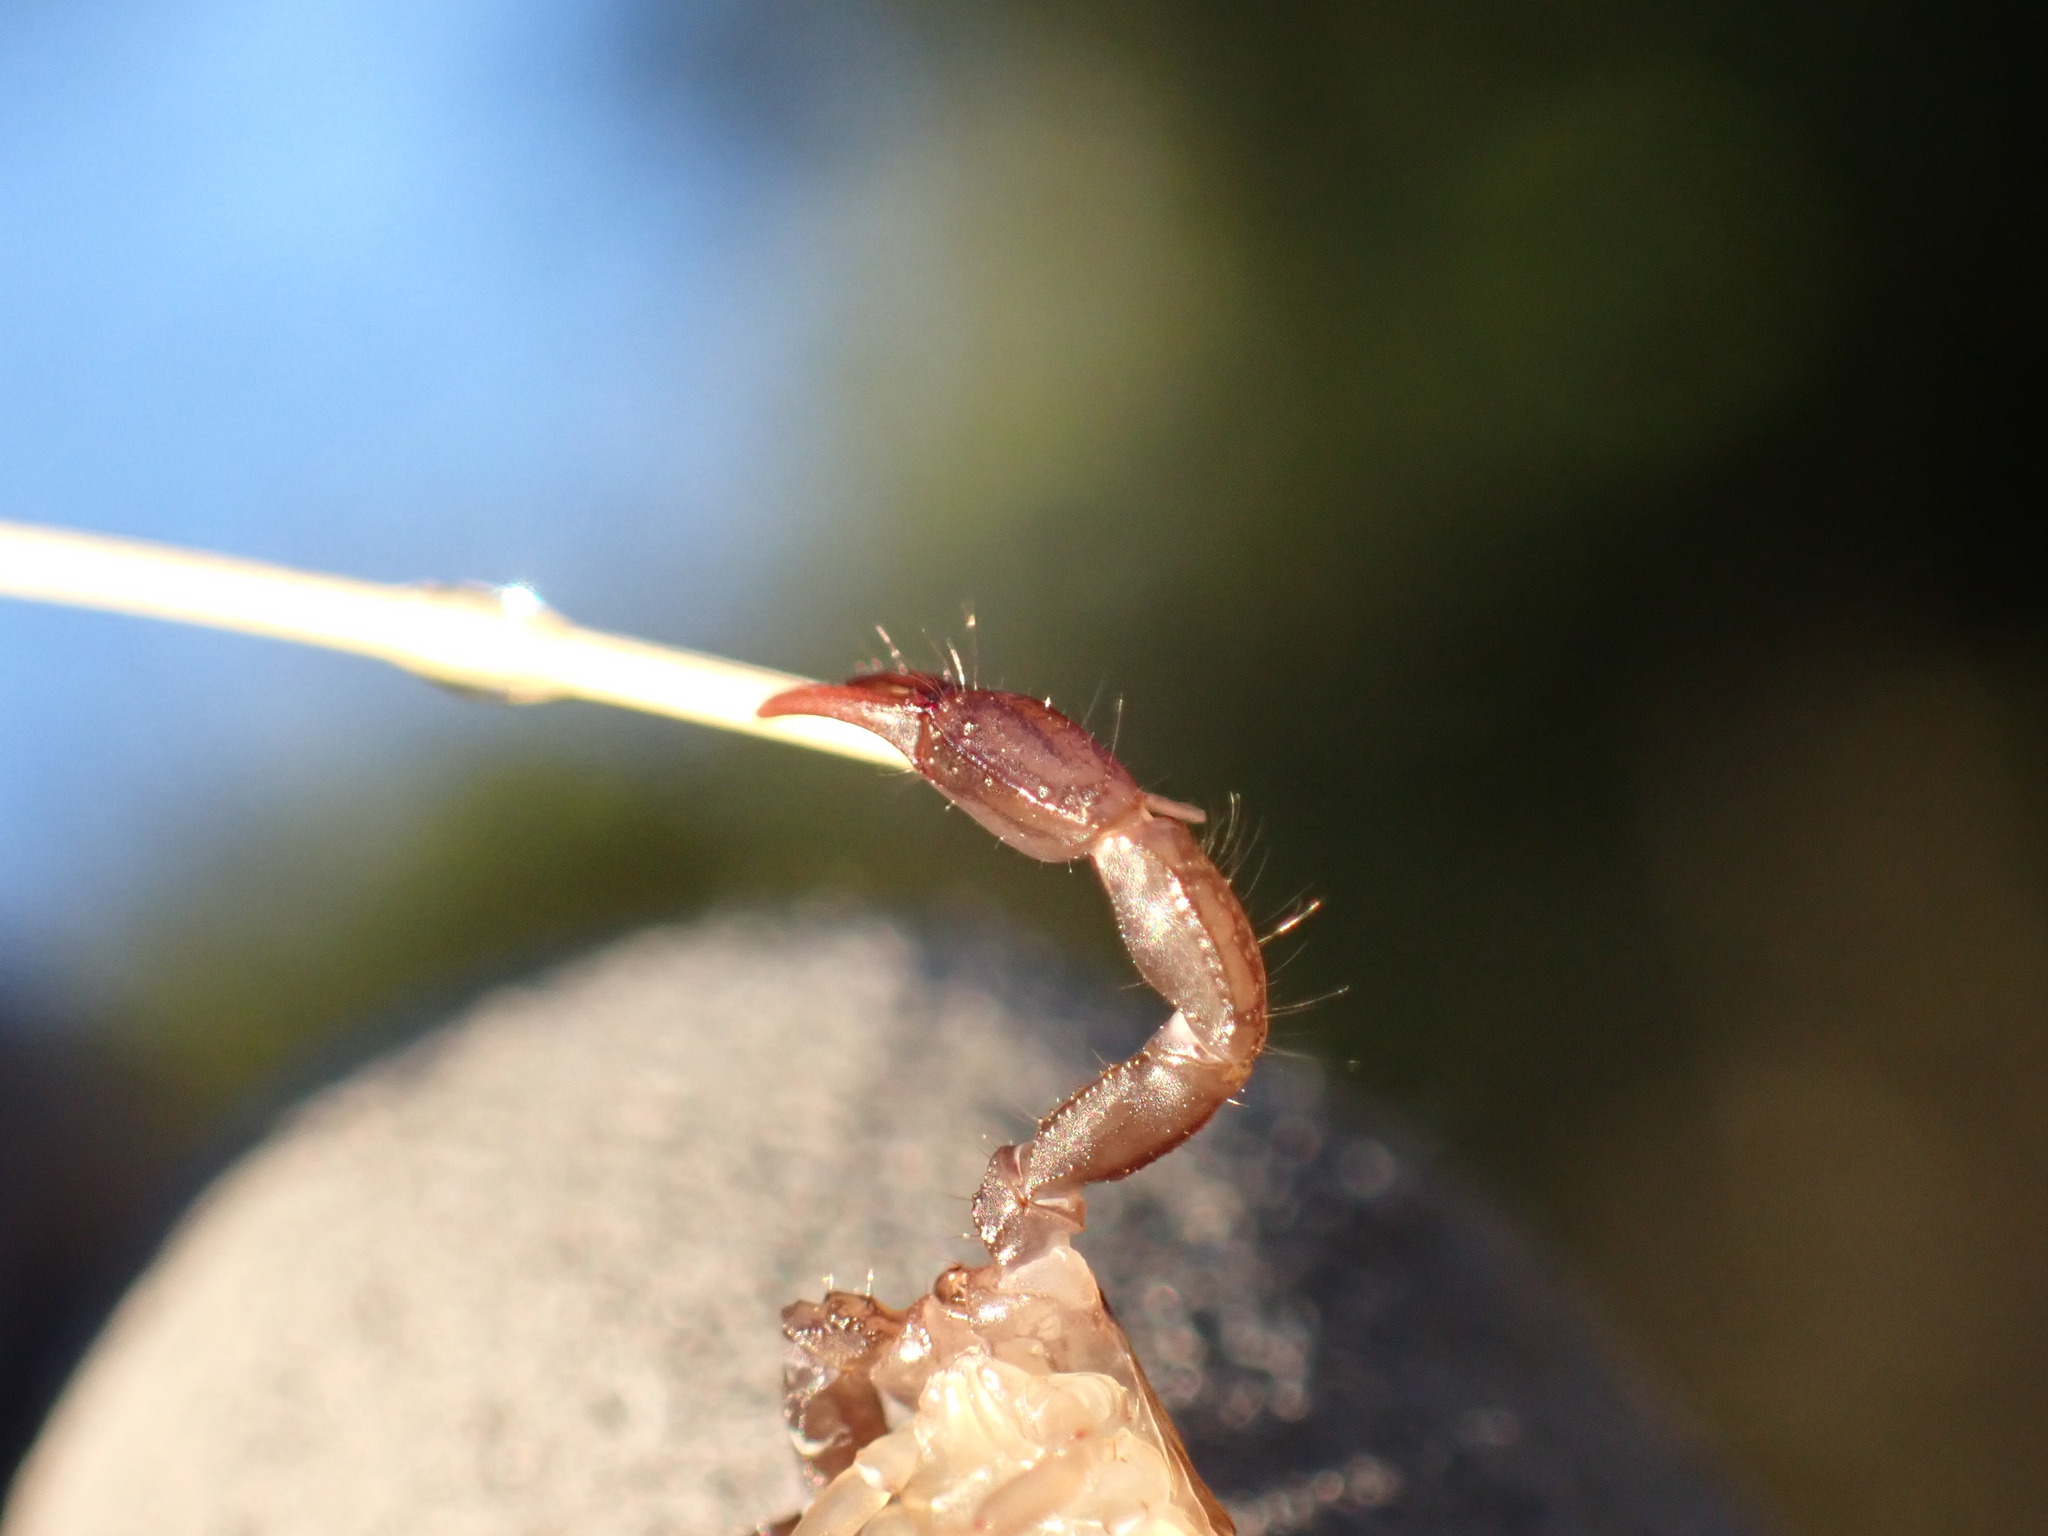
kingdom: Animalia
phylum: Arthropoda
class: Arachnida
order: Scorpiones
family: Euscorpiidae
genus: Euscorpius
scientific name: Euscorpius niciensis
